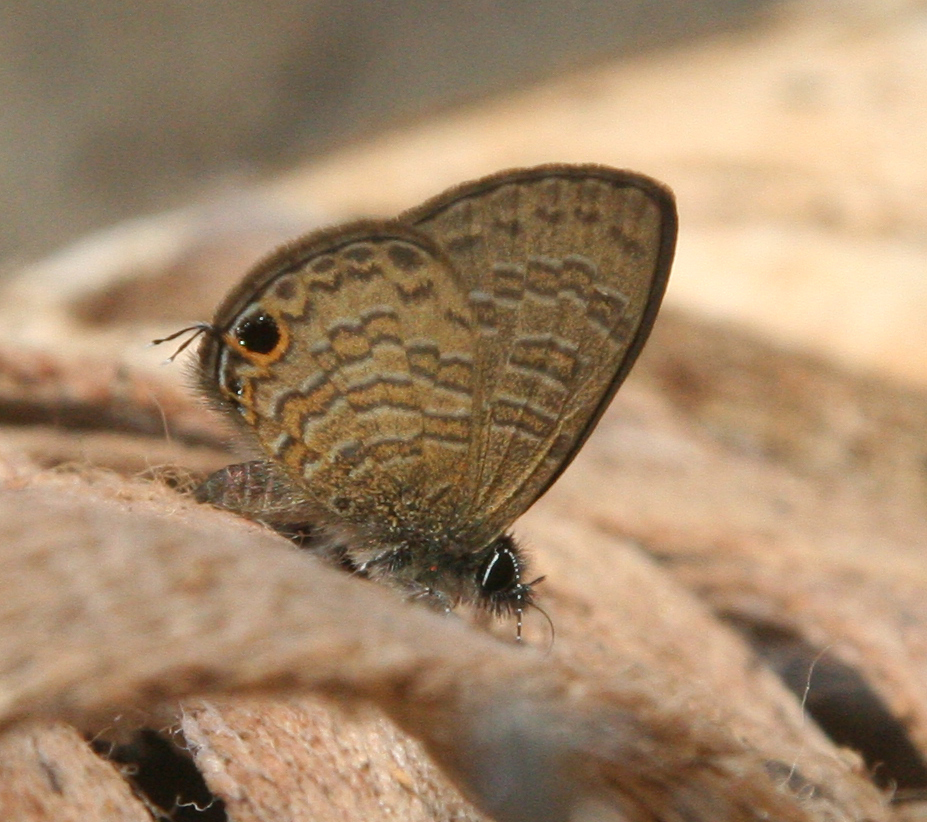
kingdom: Animalia
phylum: Arthropoda
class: Insecta
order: Lepidoptera
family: Lycaenidae
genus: Prosotas
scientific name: Prosotas nora
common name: Common line blue
